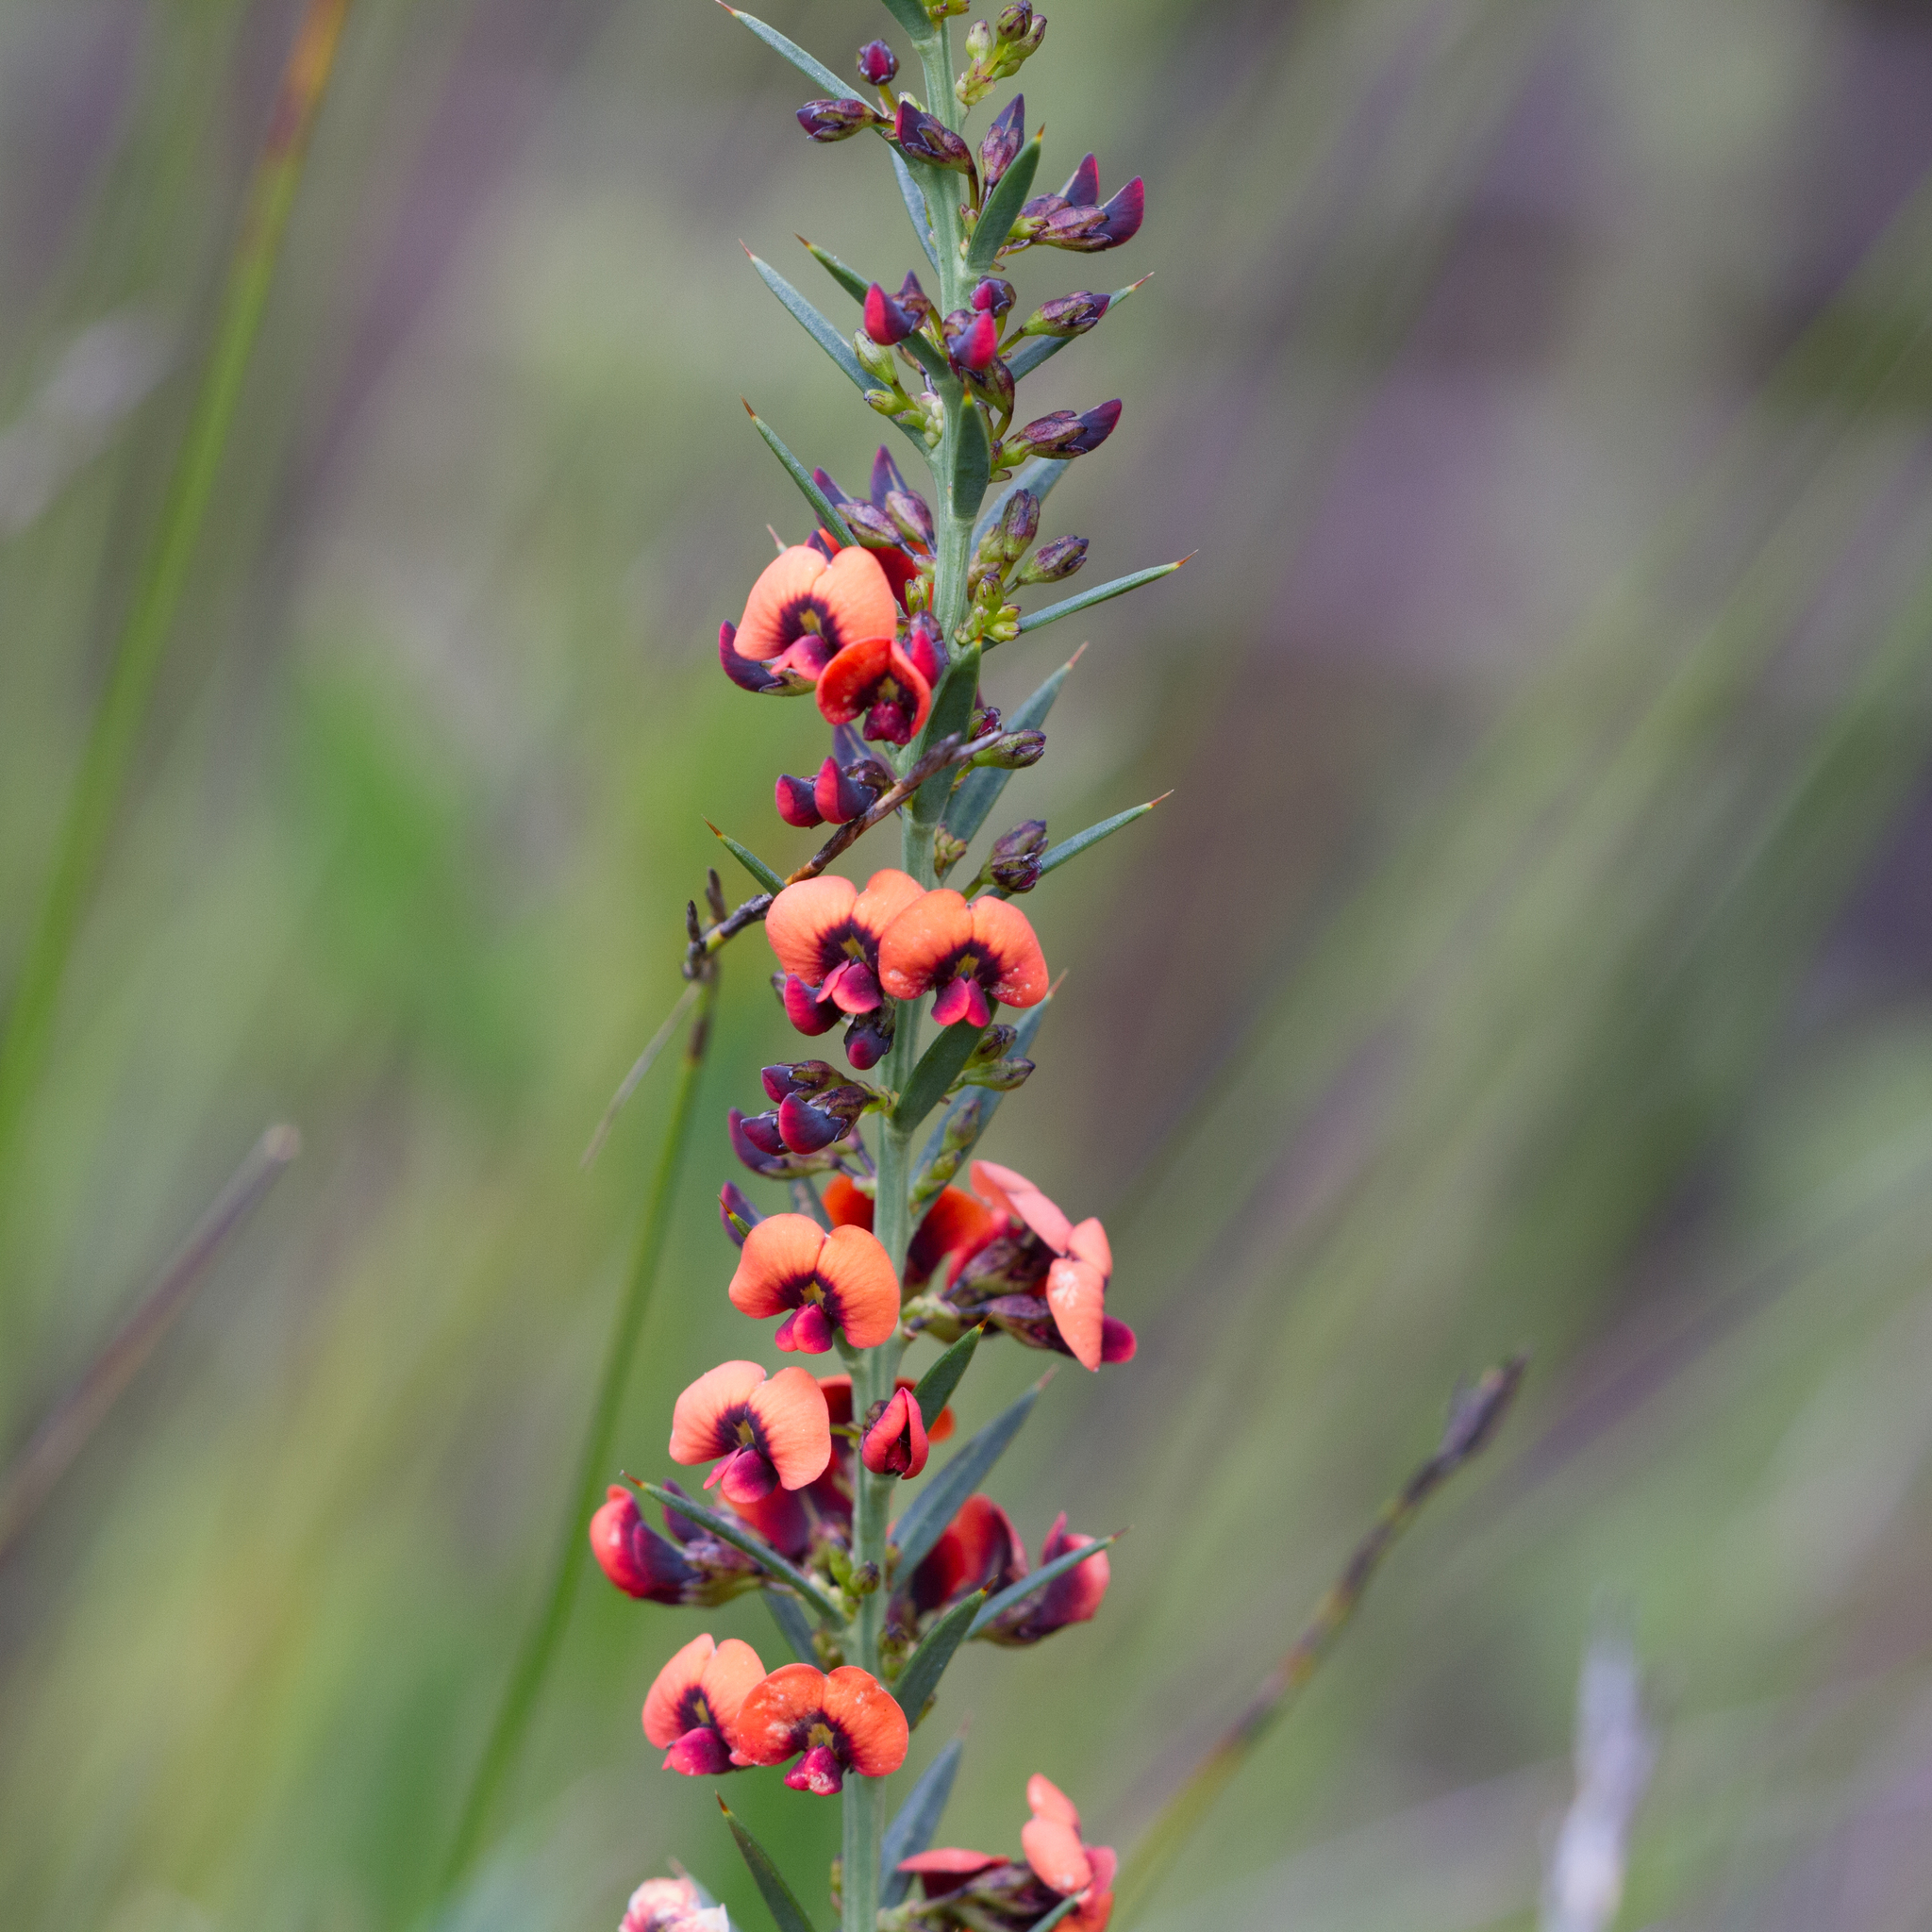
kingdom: Plantae
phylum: Tracheophyta
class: Magnoliopsida
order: Fabales
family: Fabaceae
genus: Daviesia
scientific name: Daviesia ulicifolia
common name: Gorse bitter-pea
